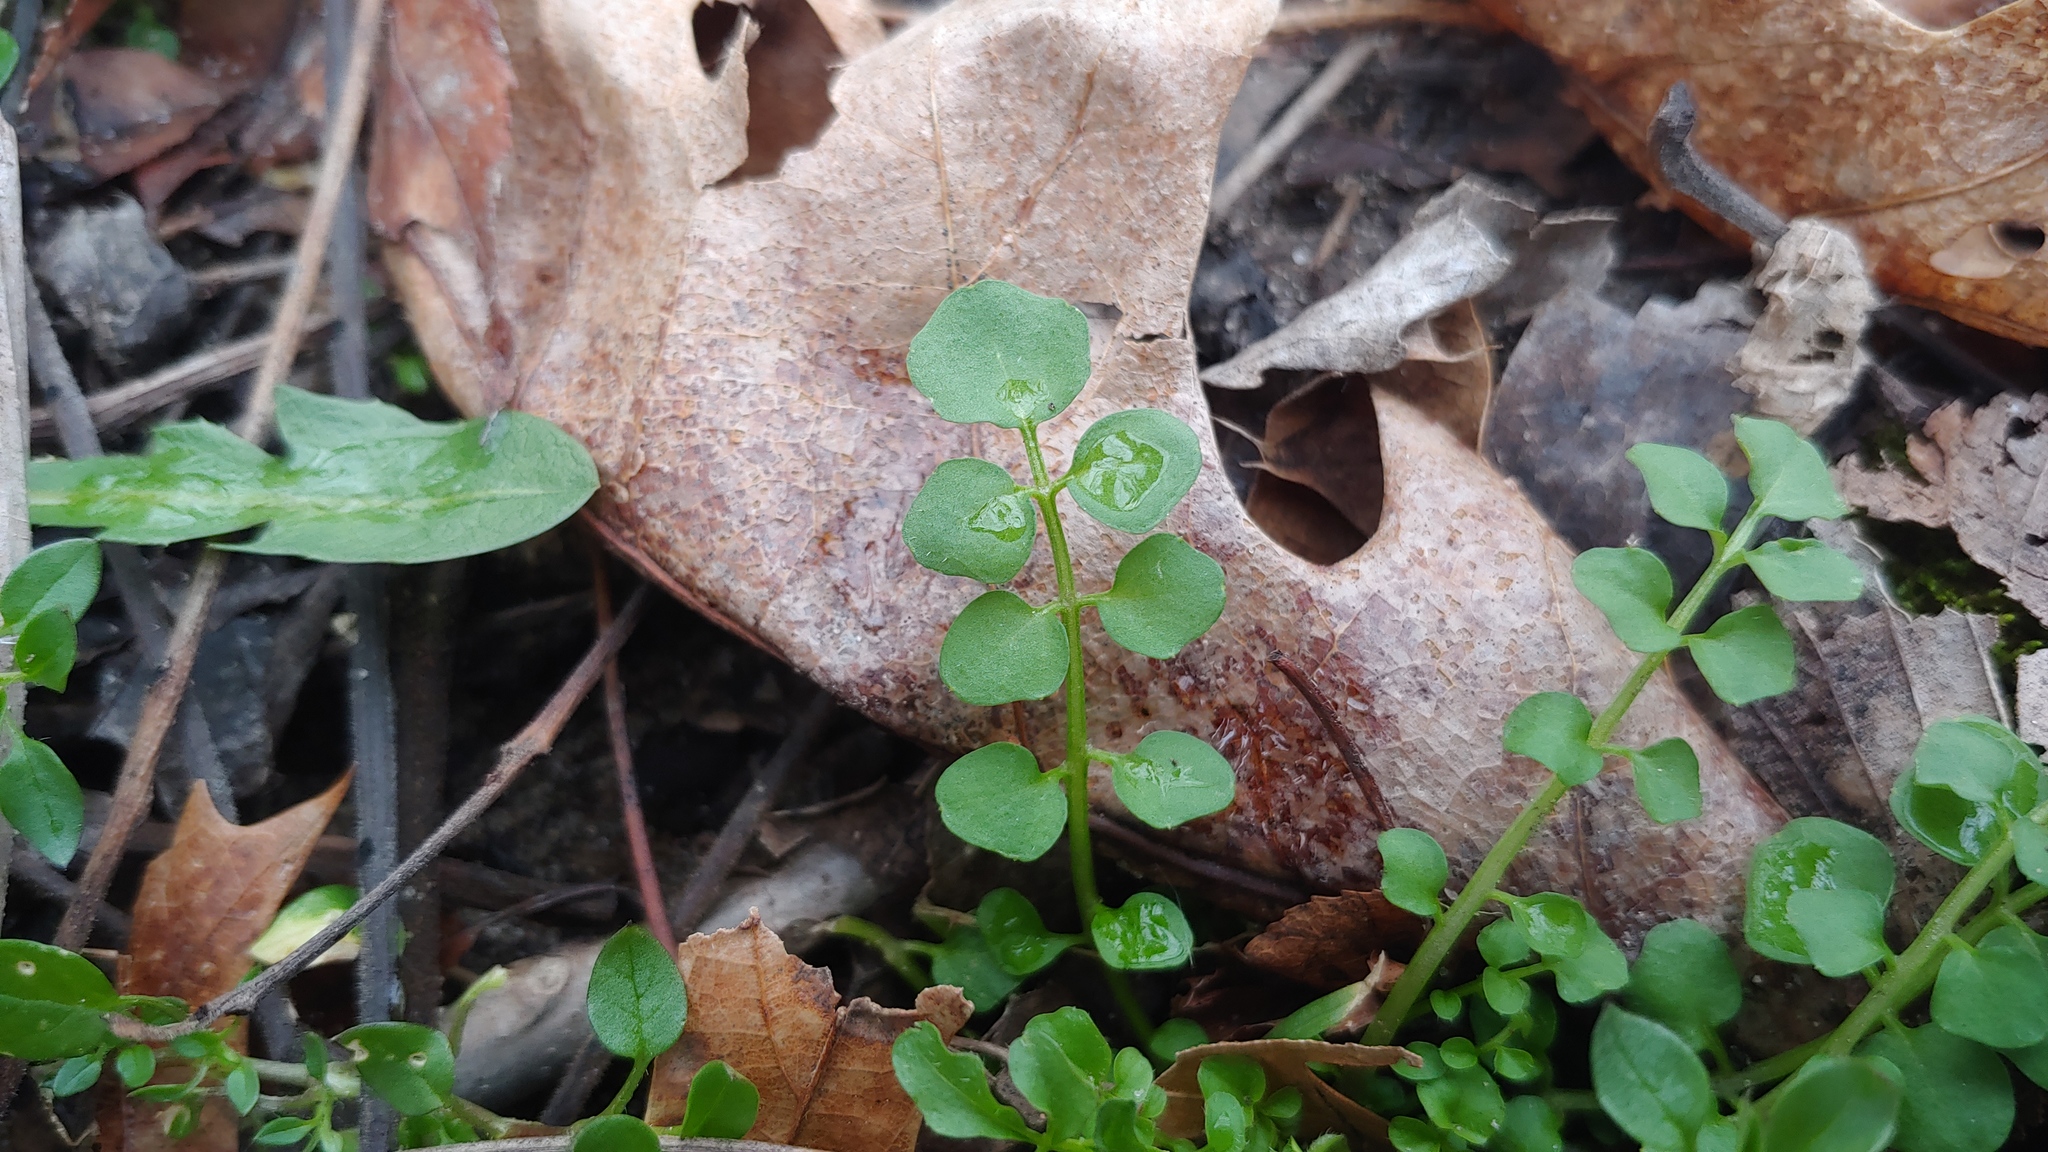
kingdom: Plantae
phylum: Tracheophyta
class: Magnoliopsida
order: Brassicales
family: Brassicaceae
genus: Cardamine
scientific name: Cardamine hirsuta
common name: Hairy bittercress
